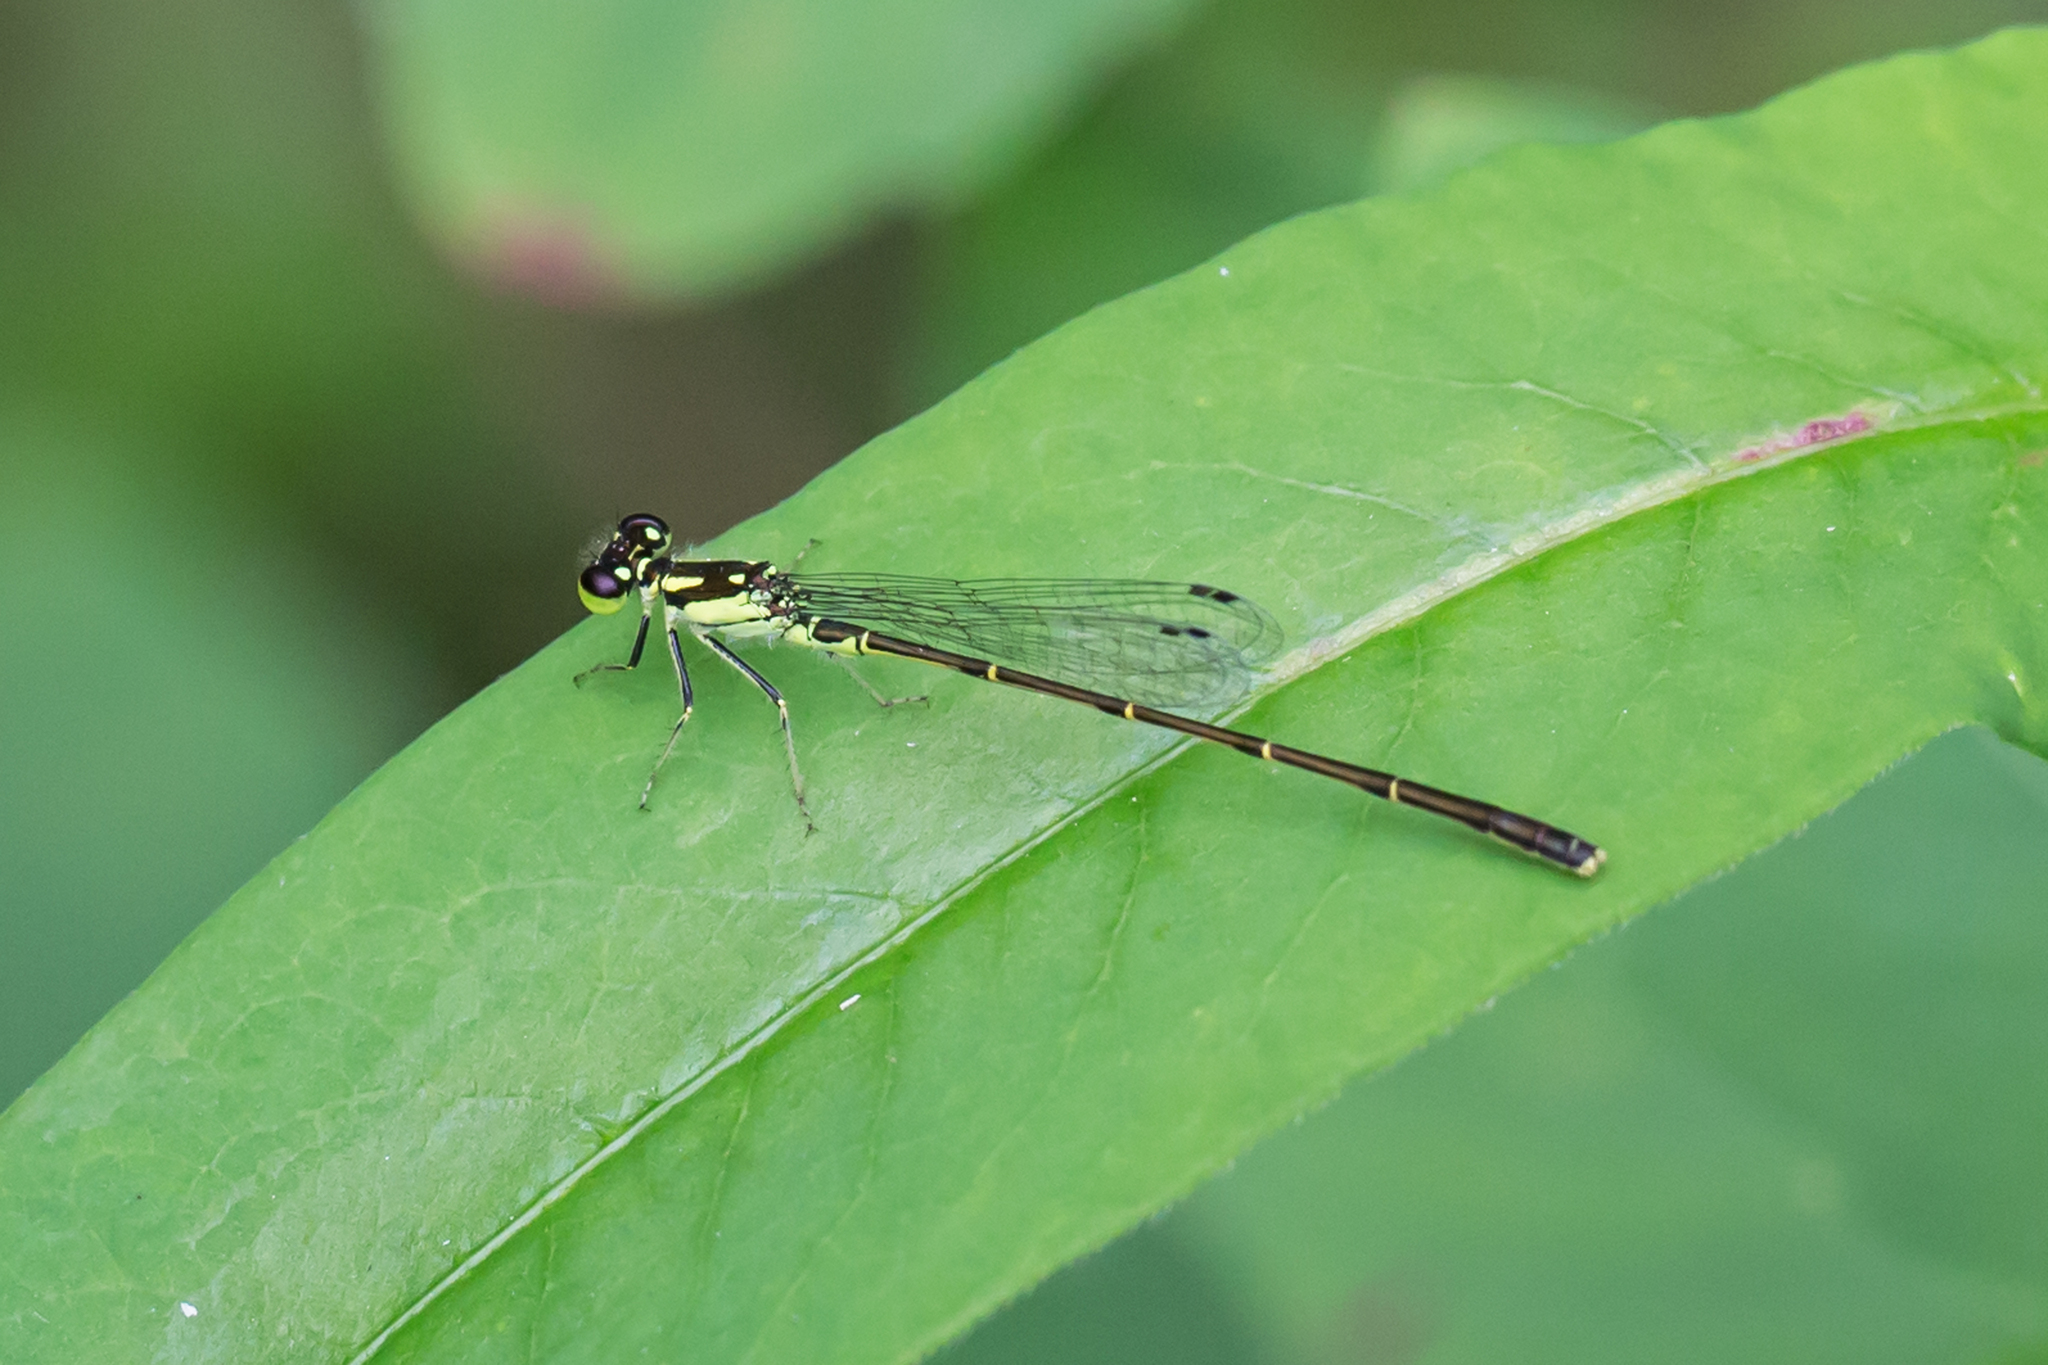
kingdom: Animalia
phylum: Arthropoda
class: Insecta
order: Odonata
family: Coenagrionidae
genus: Ischnura
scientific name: Ischnura posita
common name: Fragile forktail
